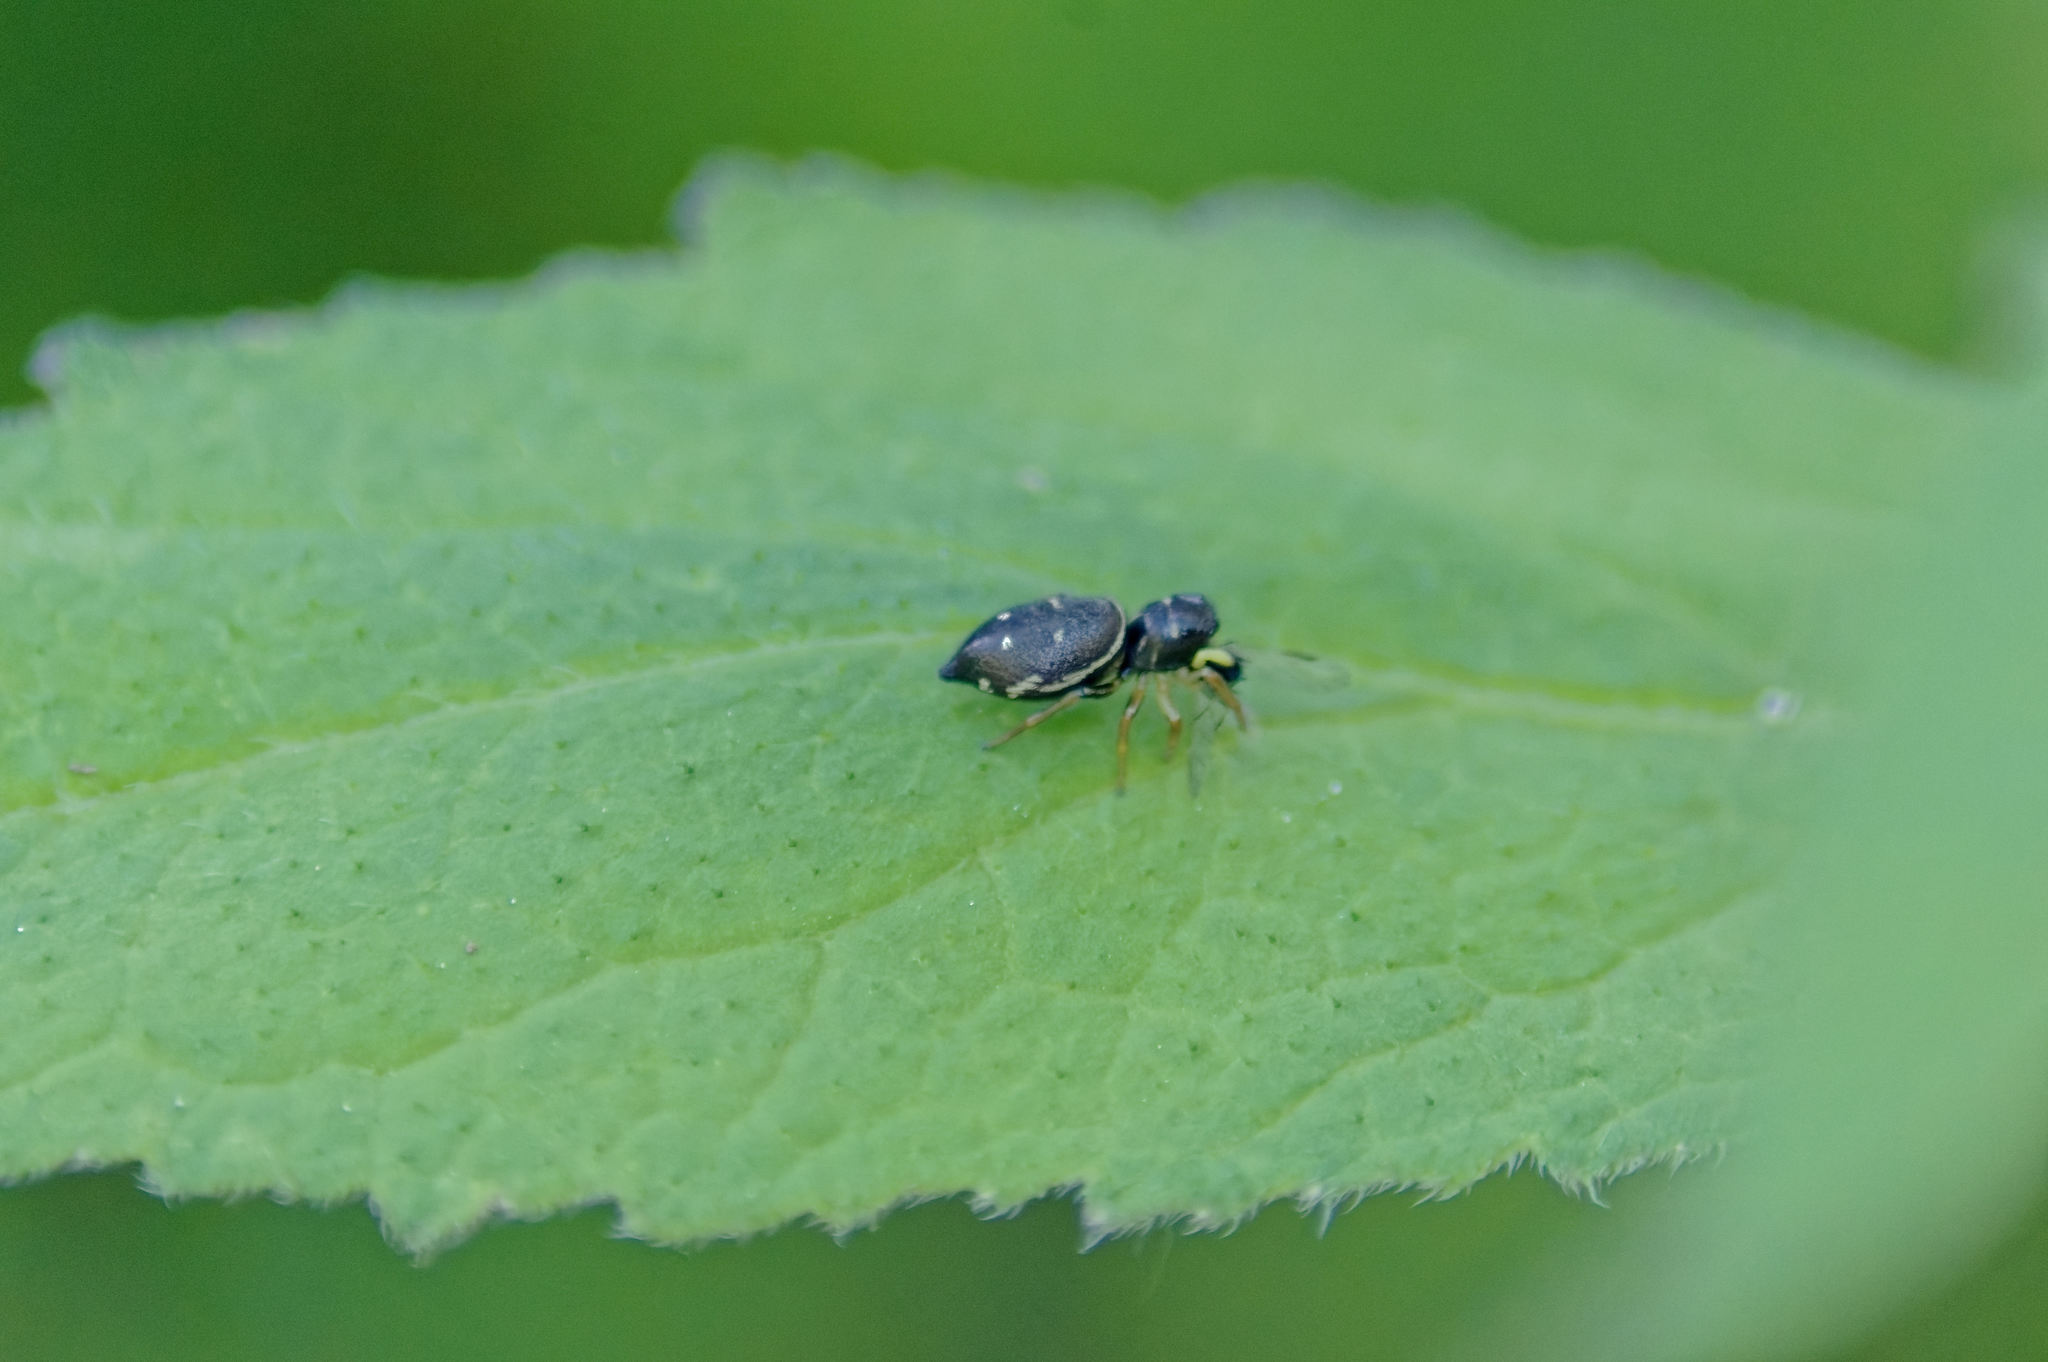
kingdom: Animalia
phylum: Arthropoda
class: Arachnida
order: Araneae
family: Salticidae
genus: Heliophanus
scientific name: Heliophanus cupreus
